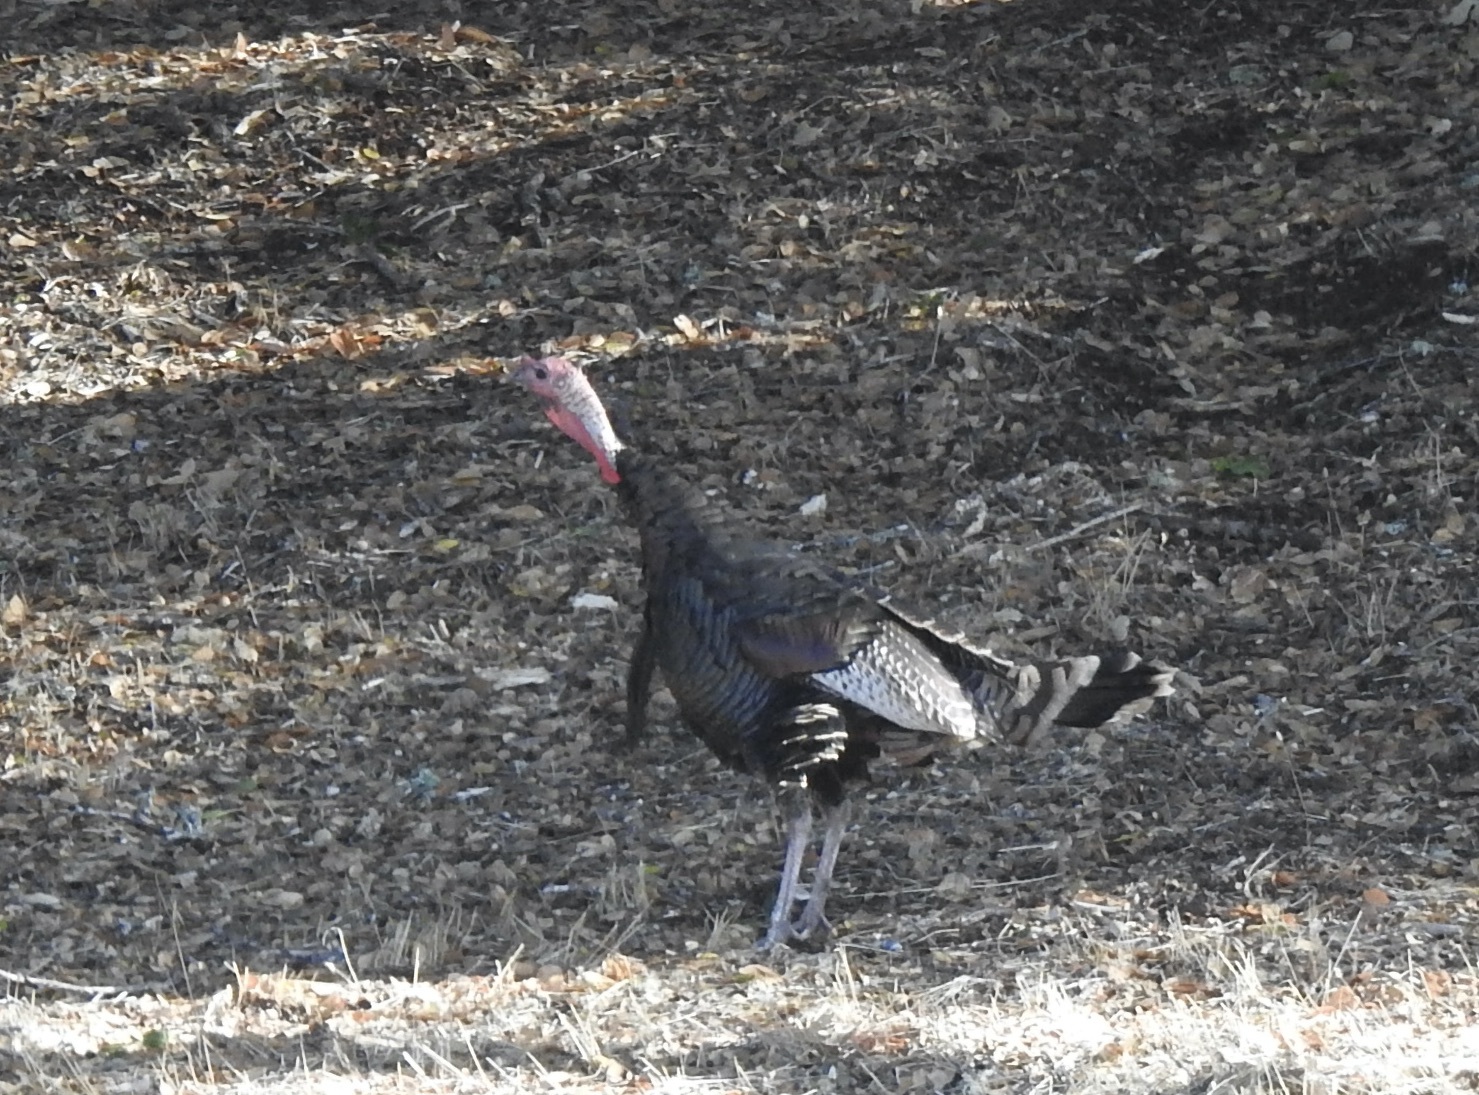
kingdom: Animalia
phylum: Chordata
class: Aves
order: Galliformes
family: Phasianidae
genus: Meleagris
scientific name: Meleagris gallopavo
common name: Wild turkey
